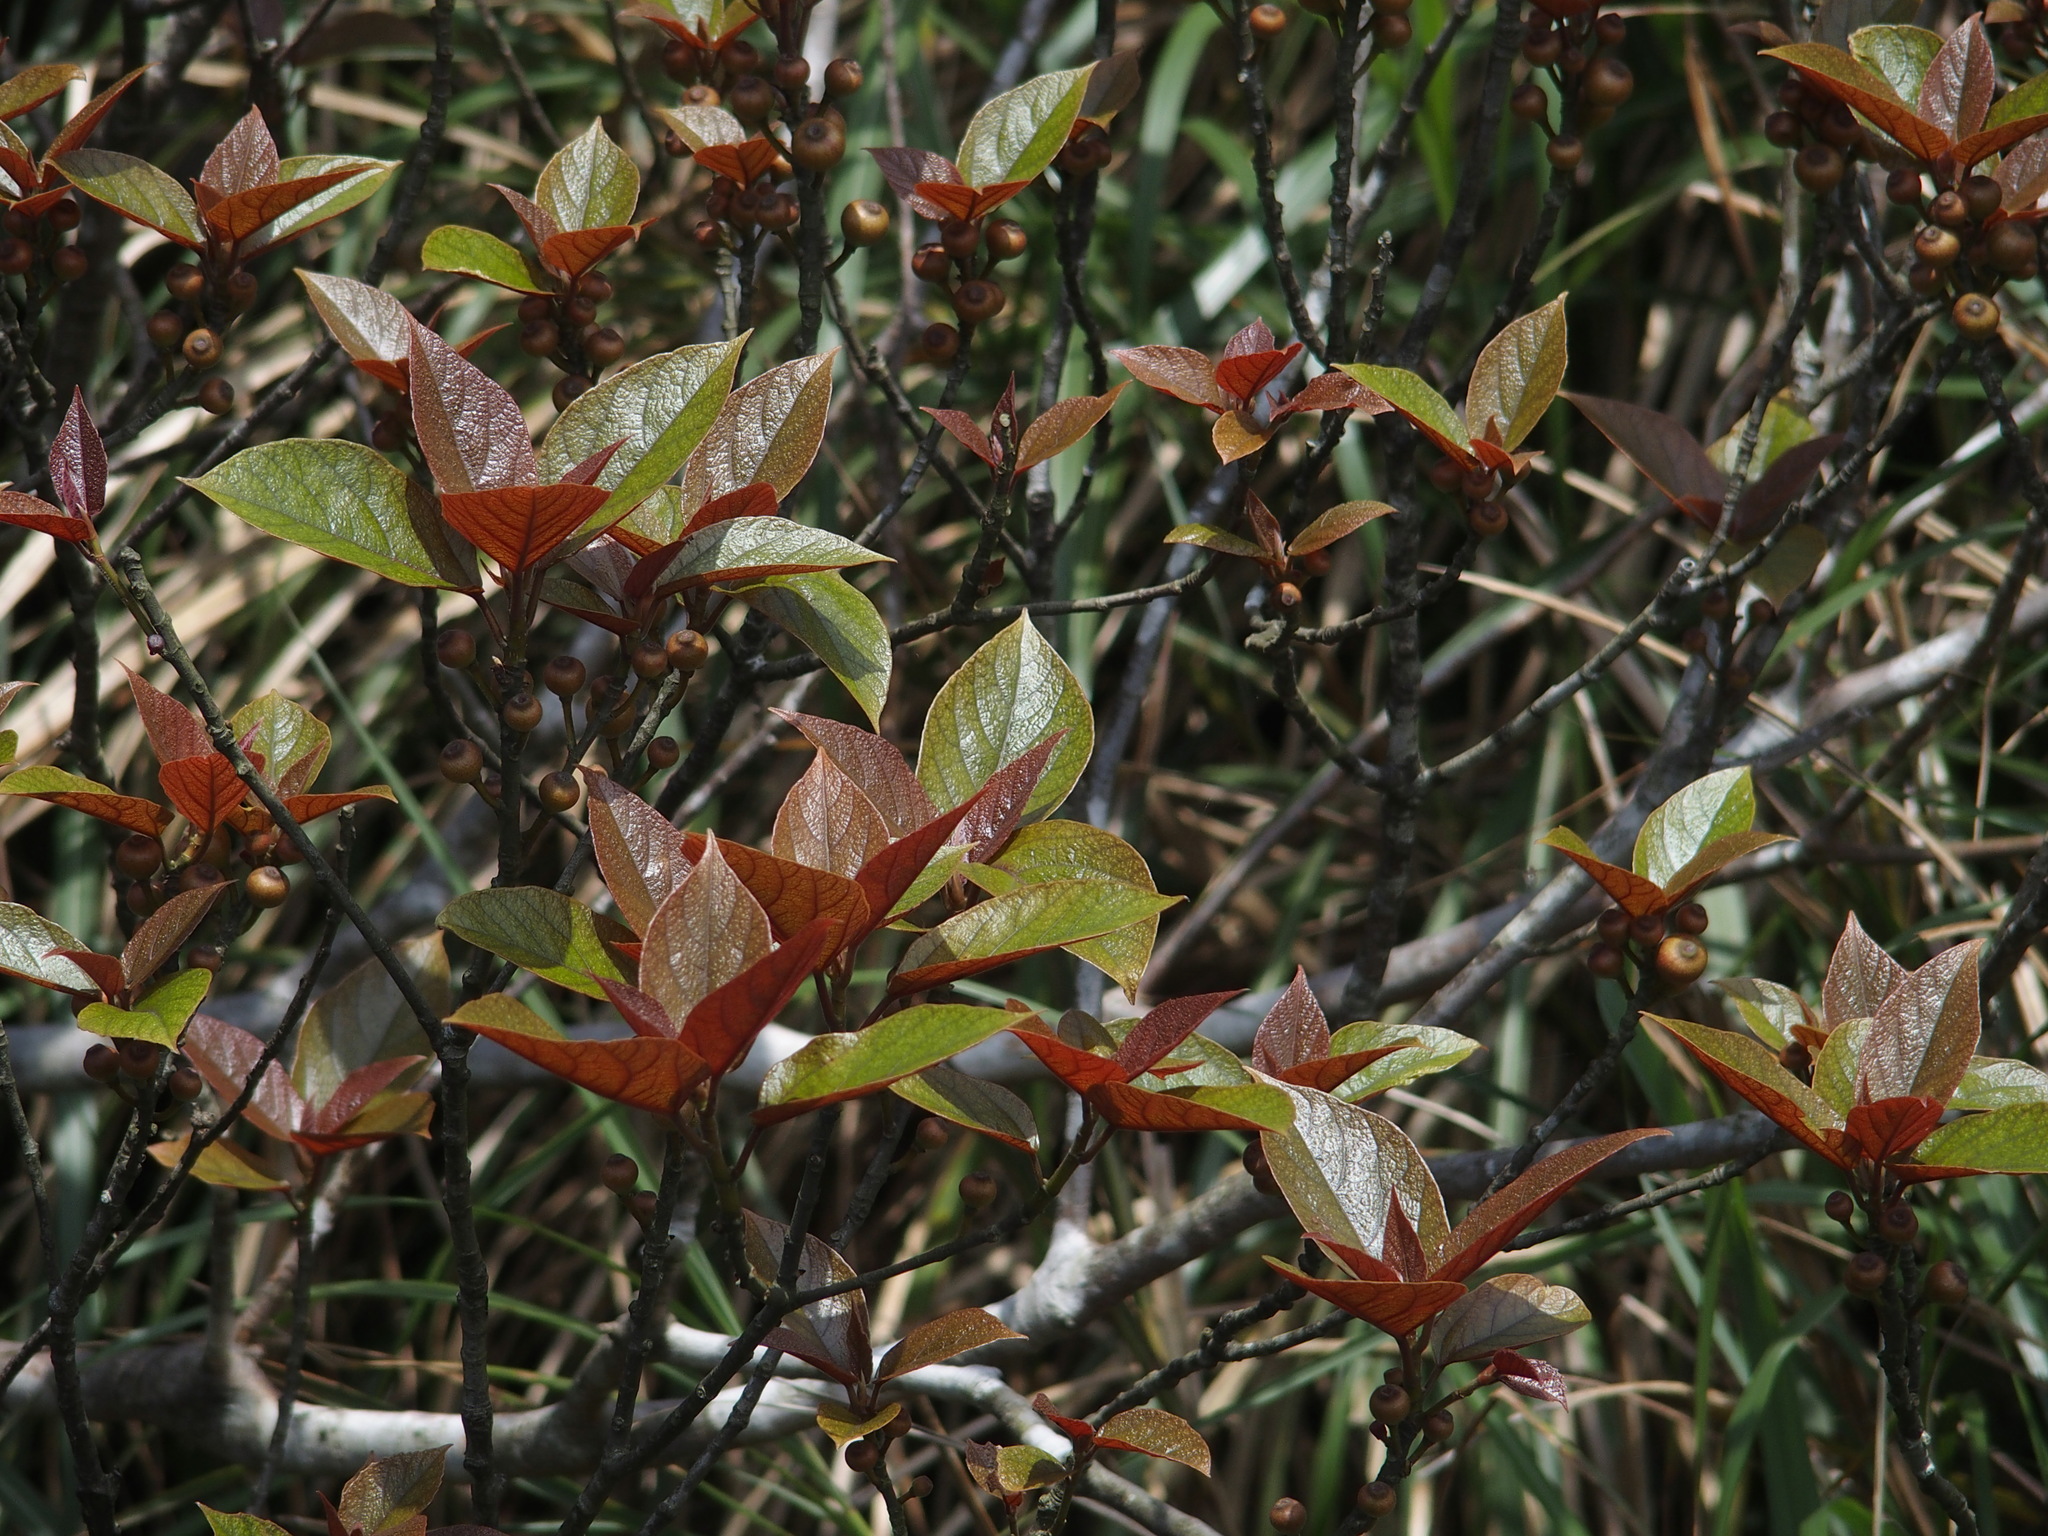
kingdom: Plantae
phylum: Tracheophyta
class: Magnoliopsida
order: Rosales
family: Moraceae
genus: Ficus
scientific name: Ficus erecta
